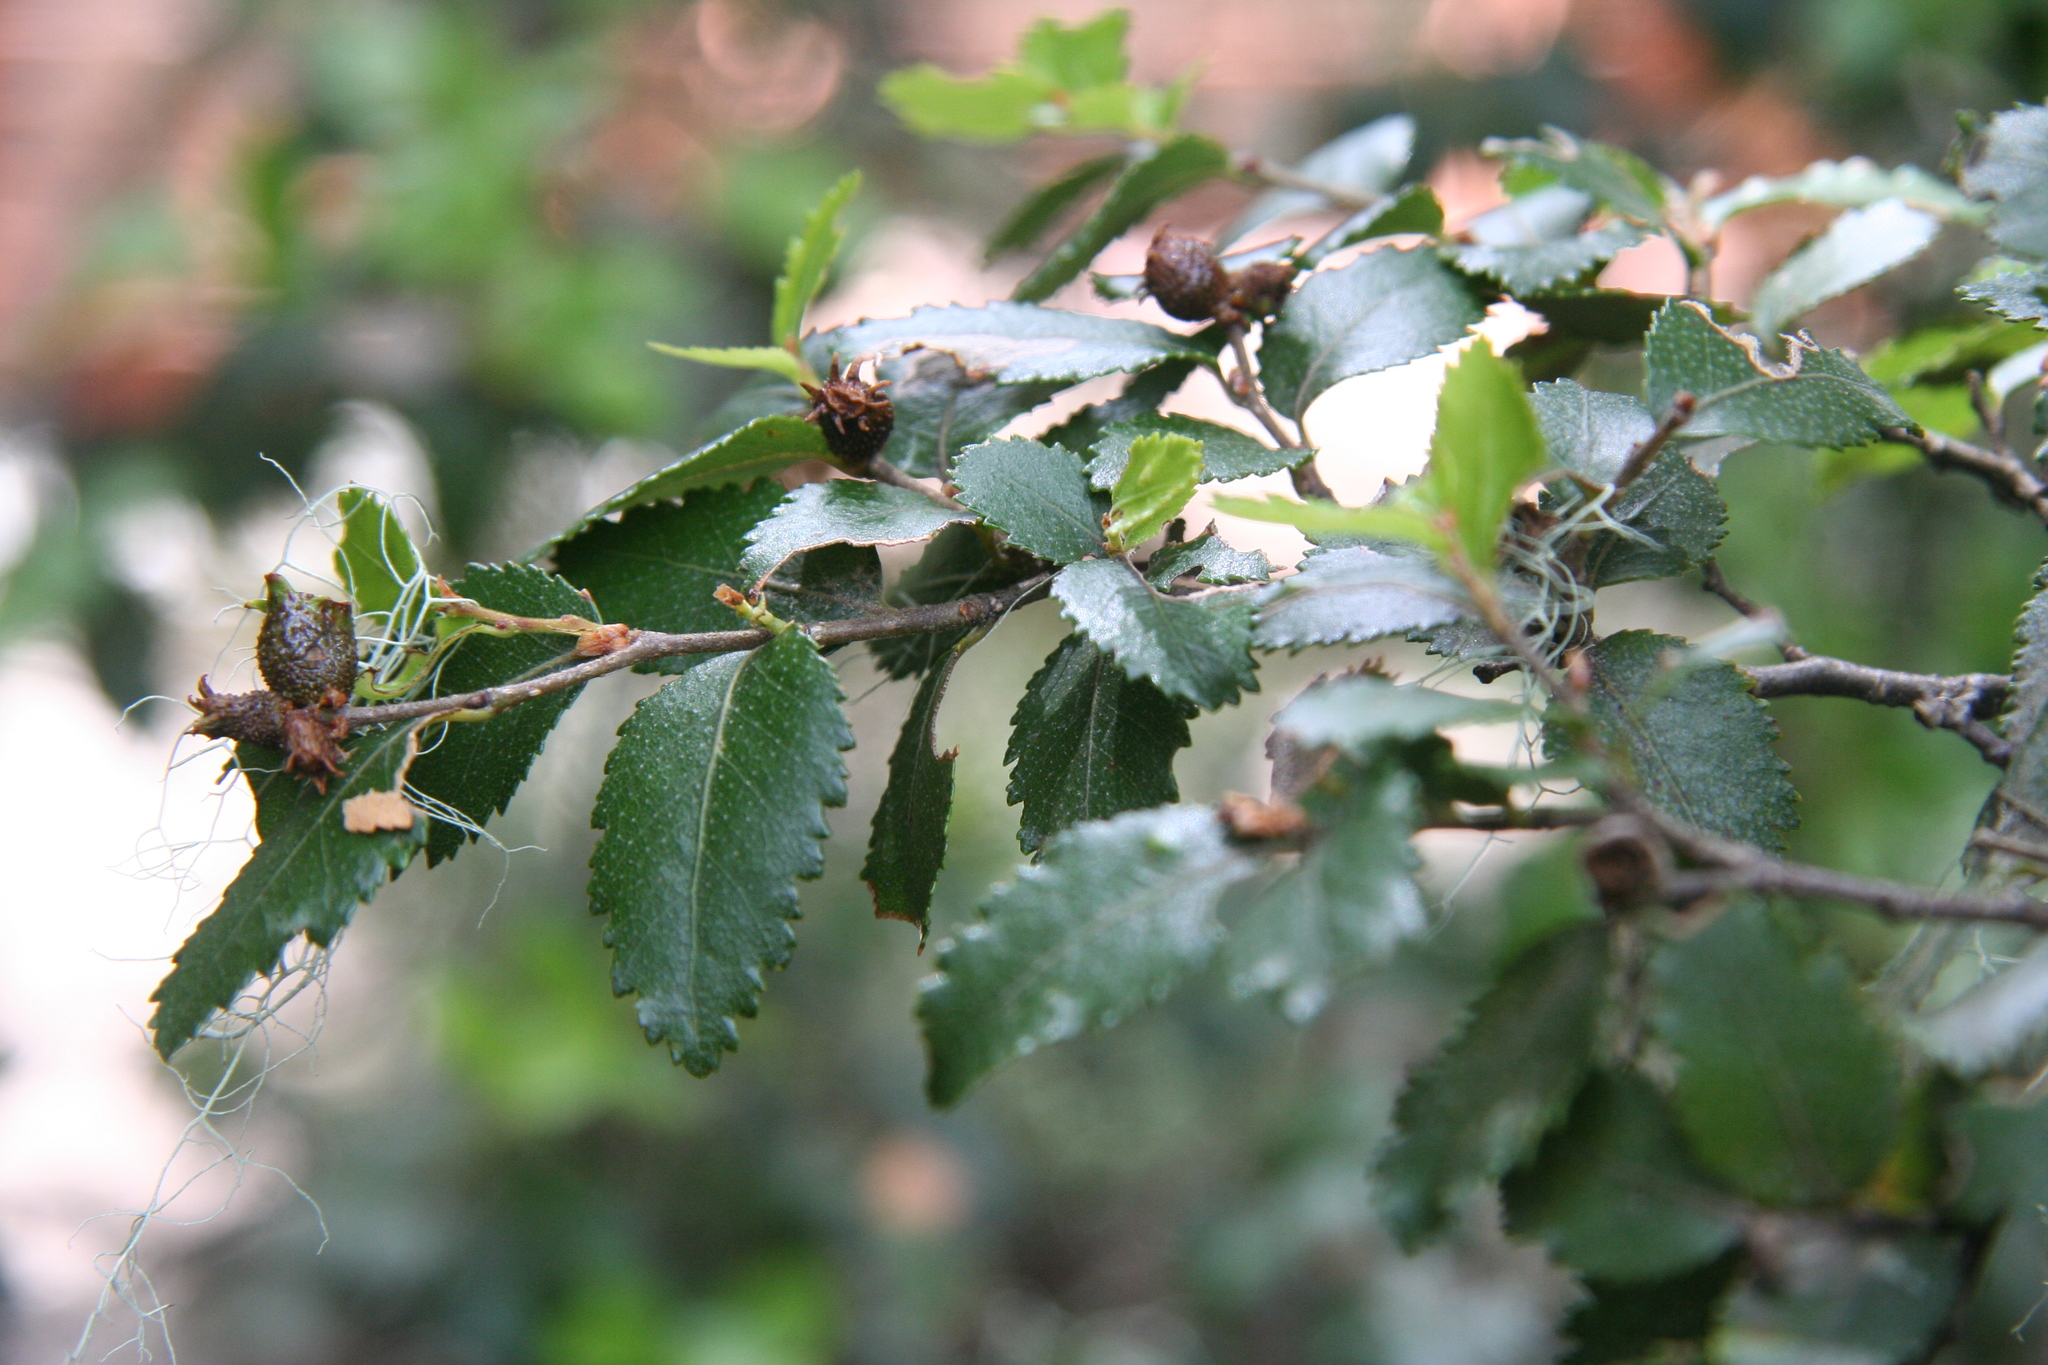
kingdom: Plantae
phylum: Tracheophyta
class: Magnoliopsida
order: Fagales
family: Nothofagaceae
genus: Nothofagus
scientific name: Nothofagus dombeyi
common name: Coigue
